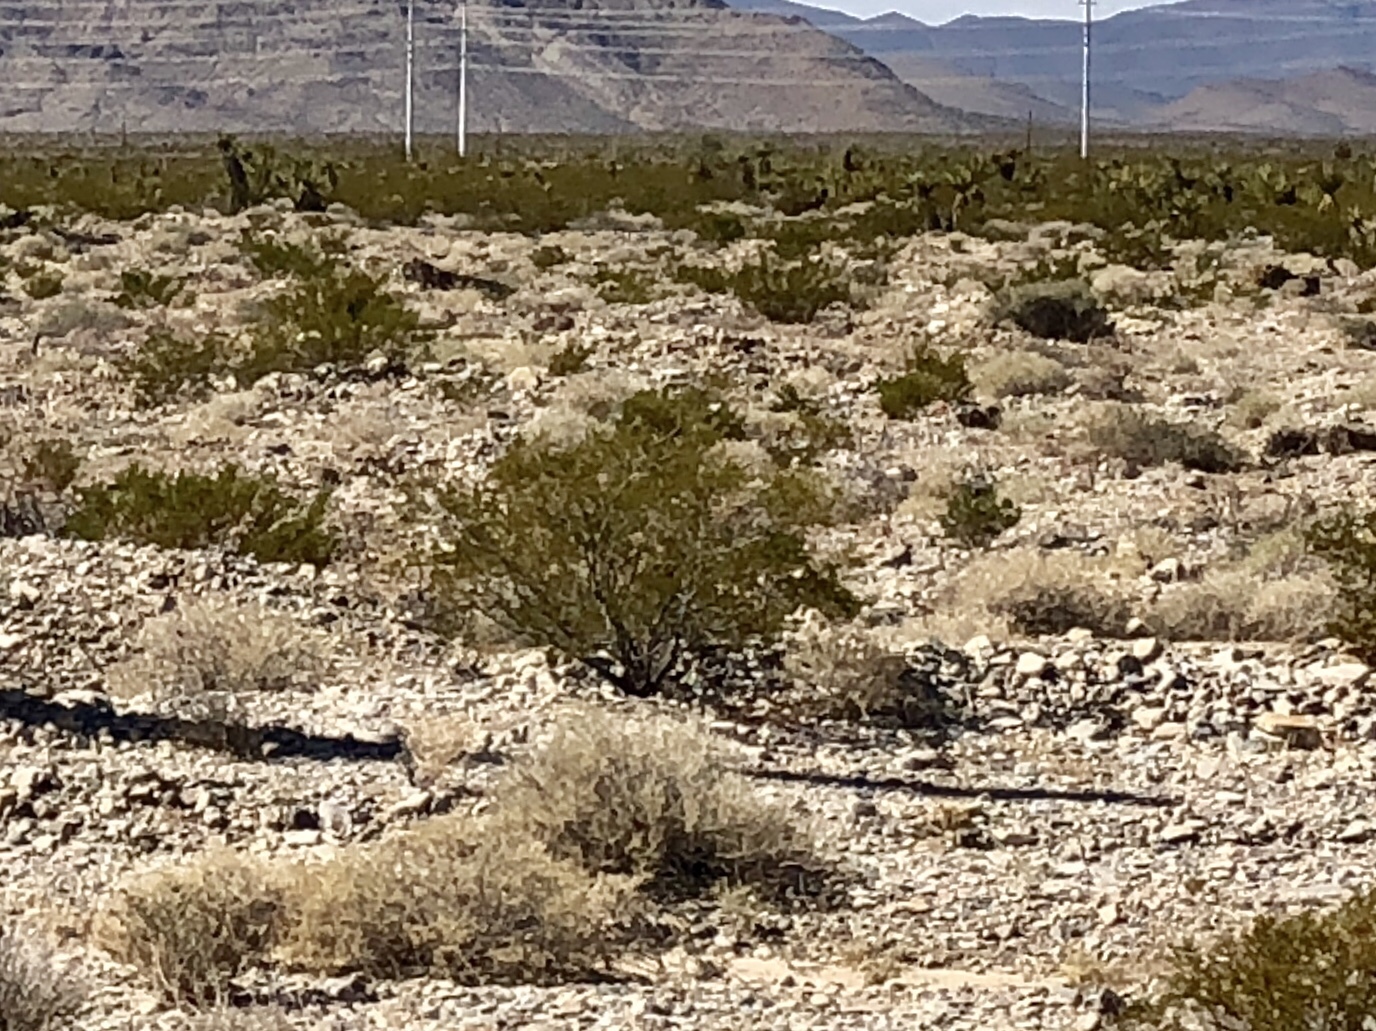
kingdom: Plantae
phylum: Tracheophyta
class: Magnoliopsida
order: Zygophyllales
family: Zygophyllaceae
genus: Larrea
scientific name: Larrea tridentata
